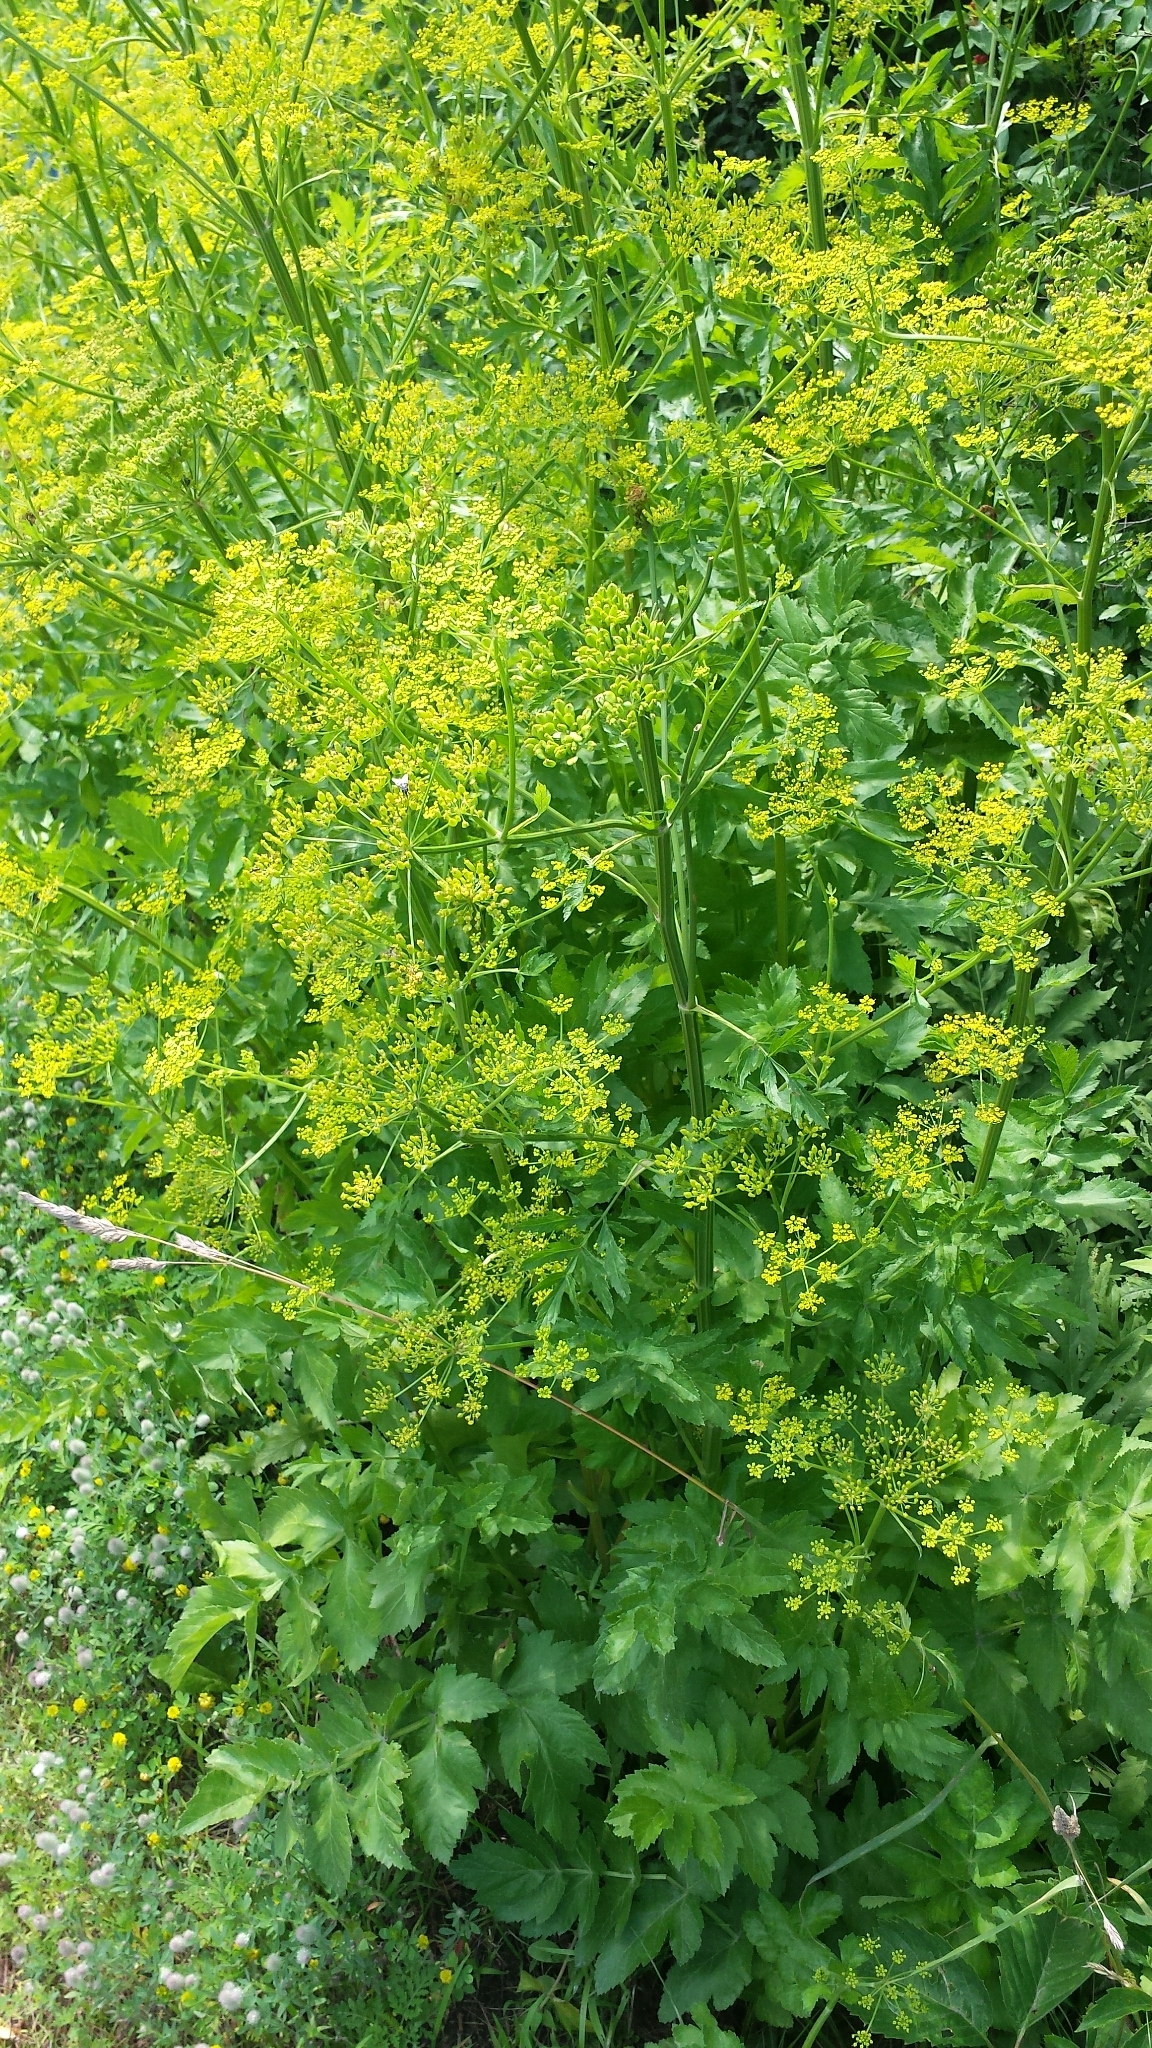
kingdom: Plantae
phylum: Tracheophyta
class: Magnoliopsida
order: Apiales
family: Apiaceae
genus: Pastinaca
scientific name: Pastinaca sativa
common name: Wild parsnip
